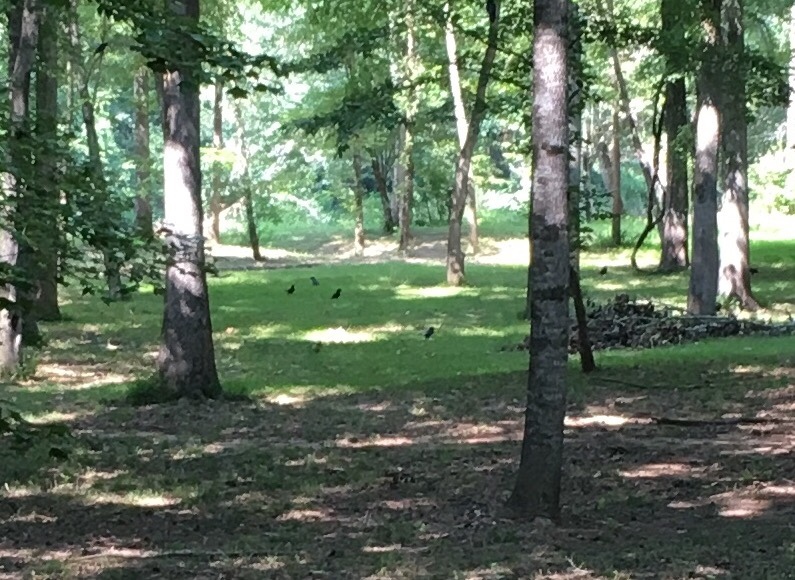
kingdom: Animalia
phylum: Chordata
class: Aves
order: Passeriformes
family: Corvidae
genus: Corvus
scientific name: Corvus
